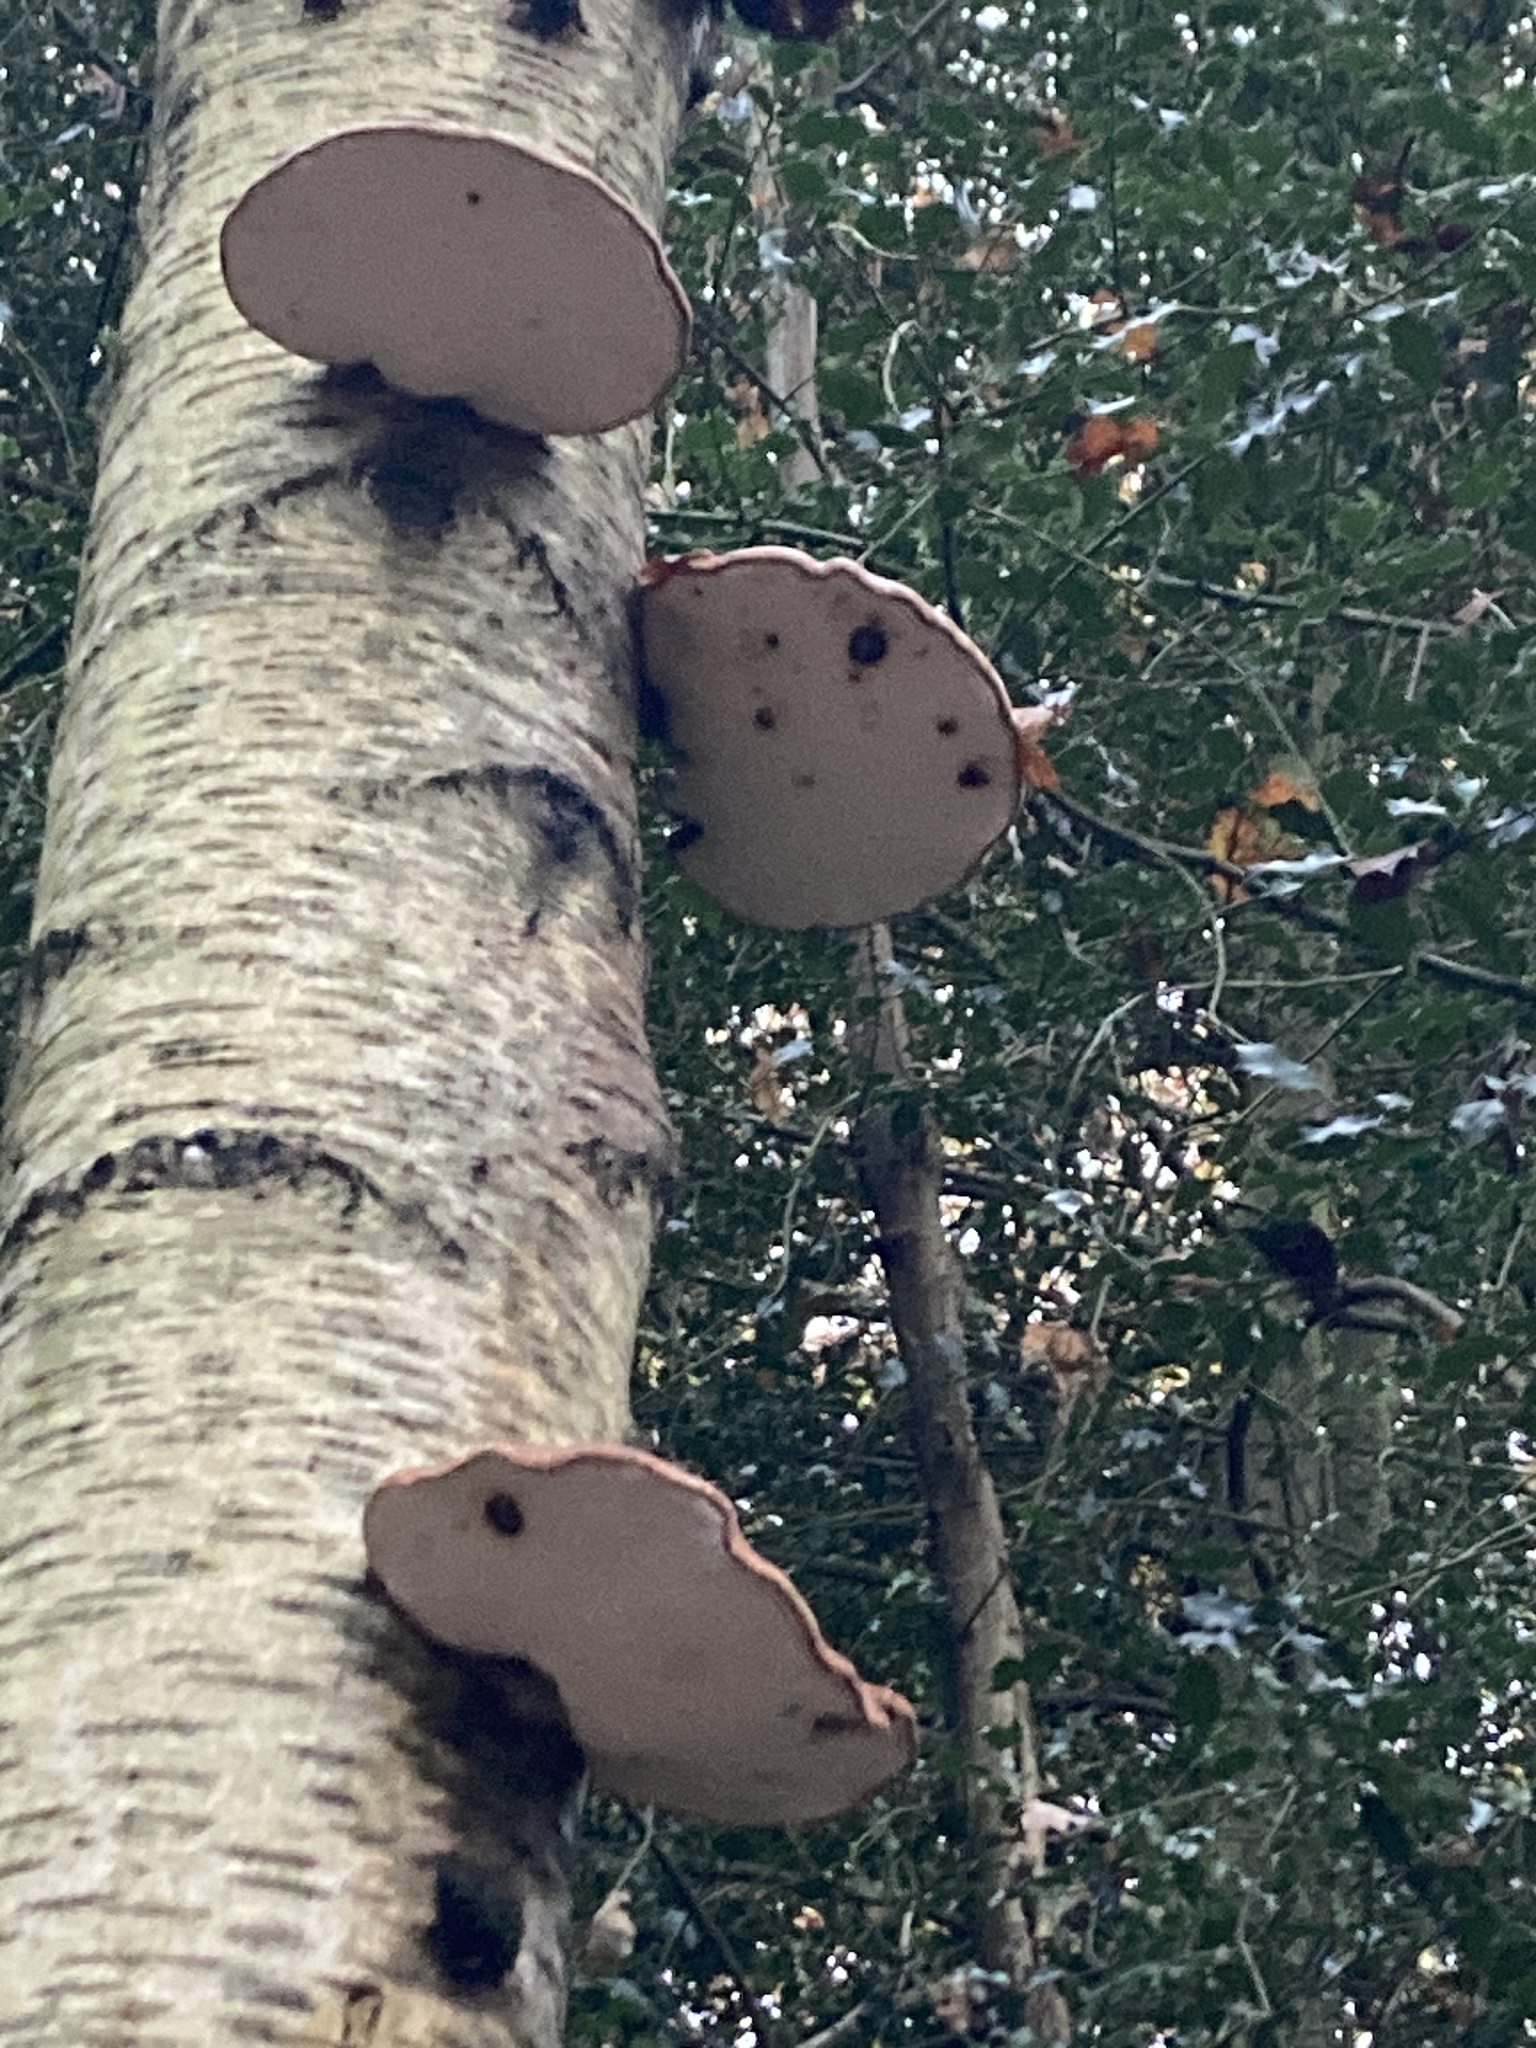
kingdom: Fungi
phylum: Basidiomycota
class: Agaricomycetes
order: Polyporales
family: Fomitopsidaceae
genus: Fomitopsis
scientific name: Fomitopsis betulina
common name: Birch polypore
